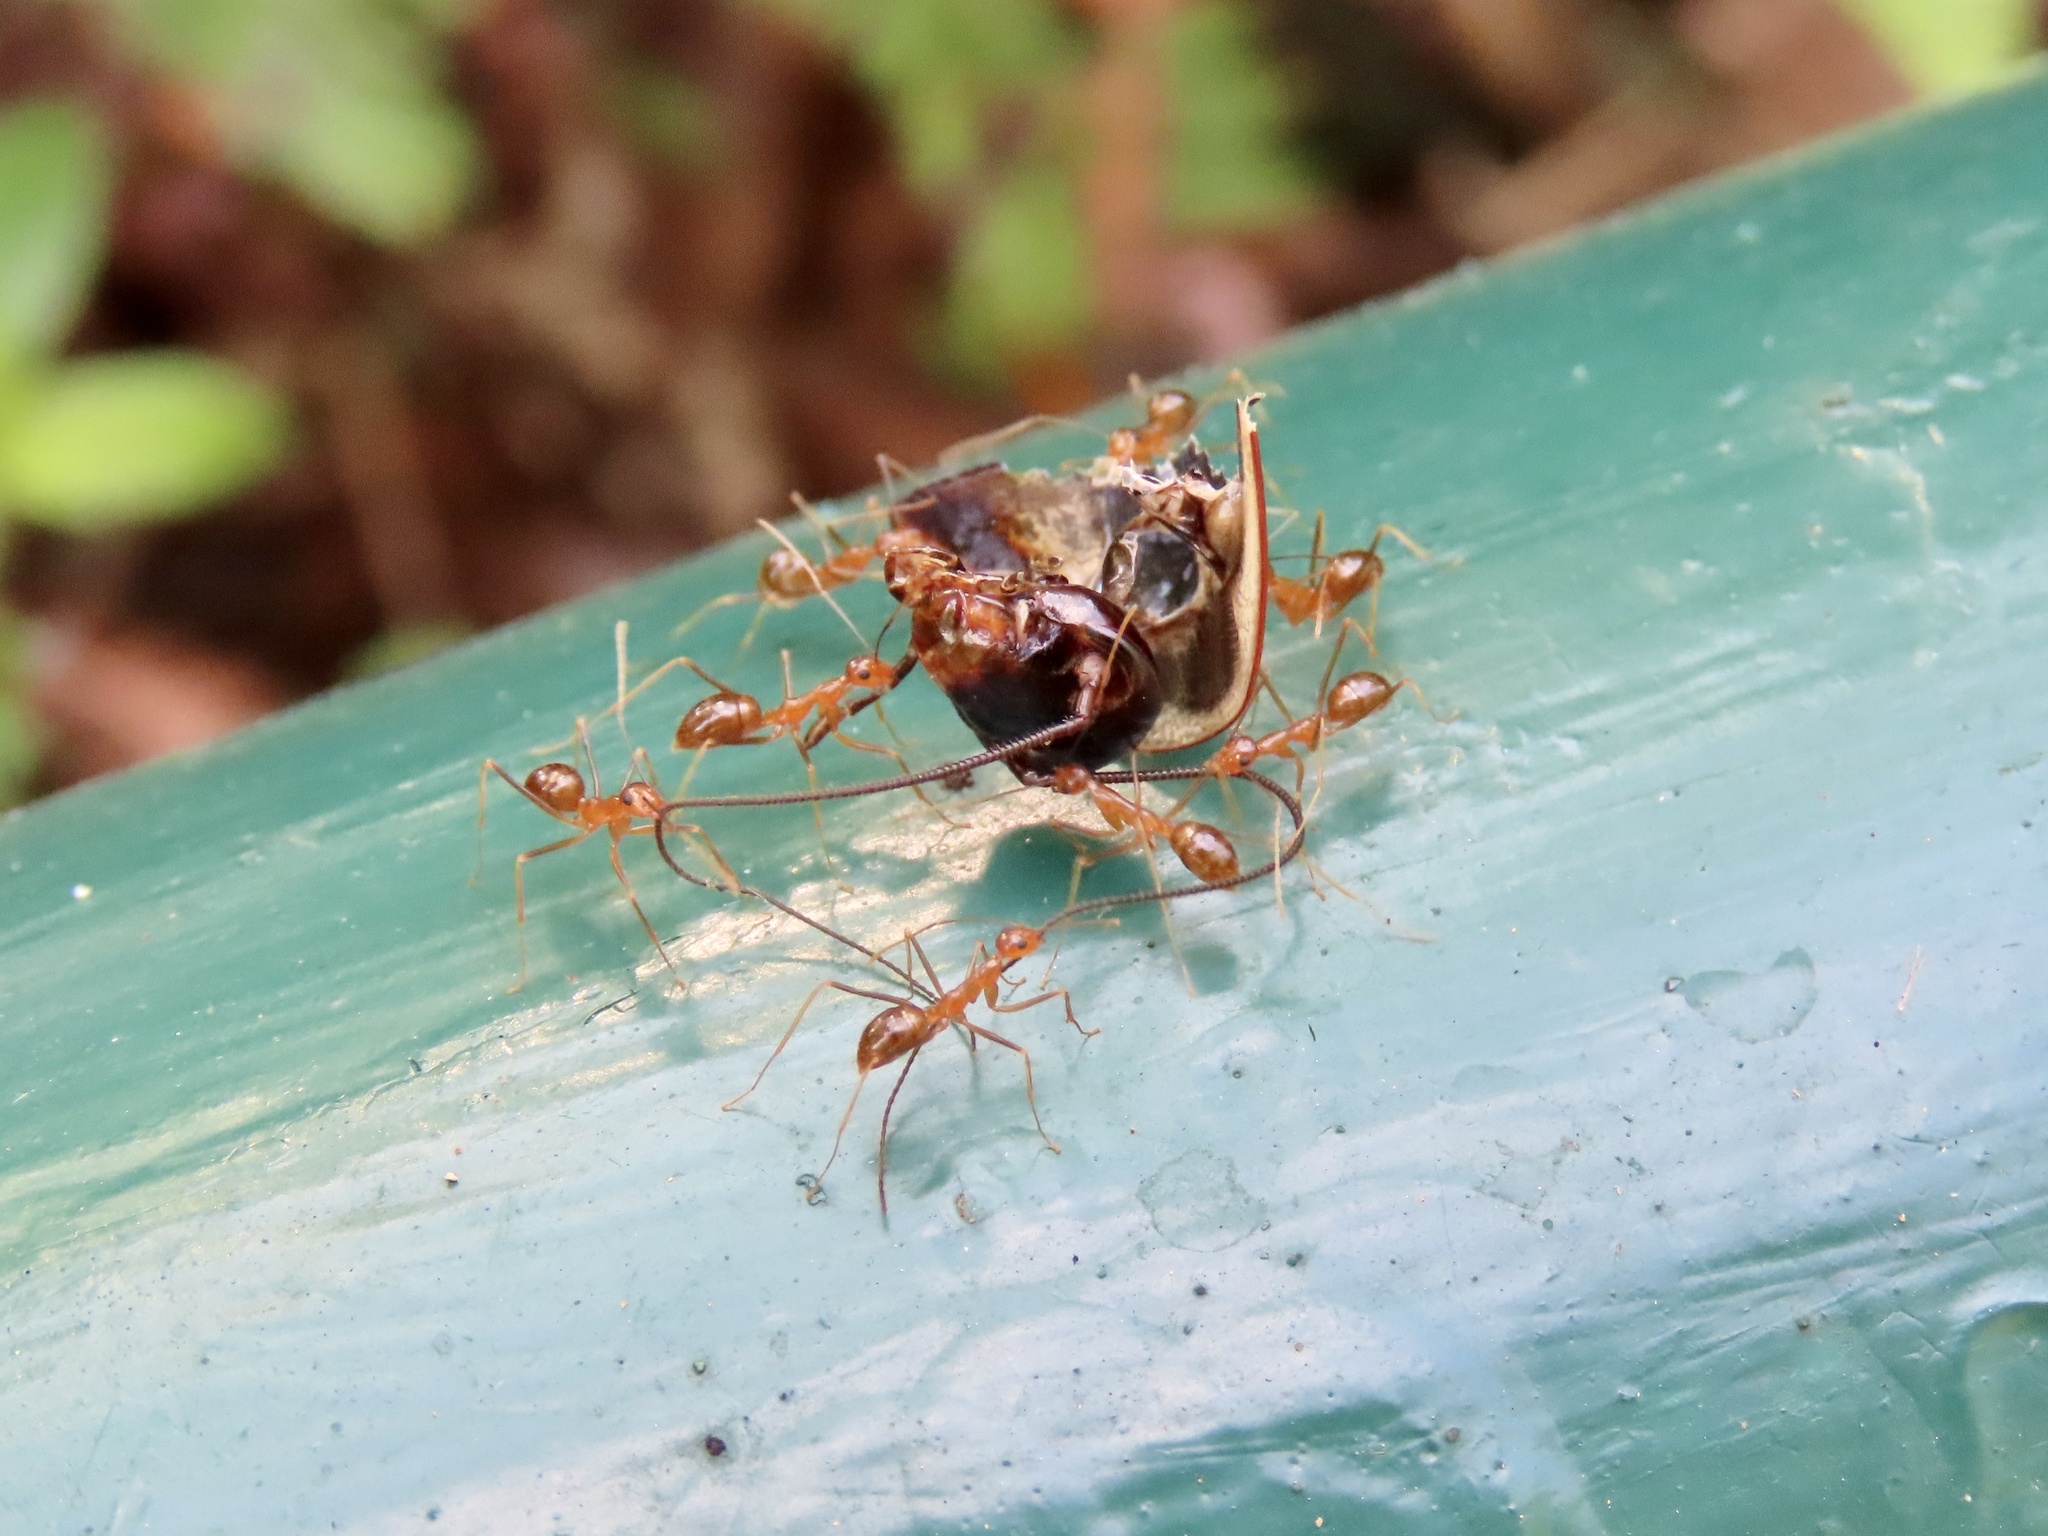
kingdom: Animalia
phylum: Arthropoda
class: Insecta
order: Hymenoptera
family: Formicidae
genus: Anoplolepis
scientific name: Anoplolepis gracilipes
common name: Ant
